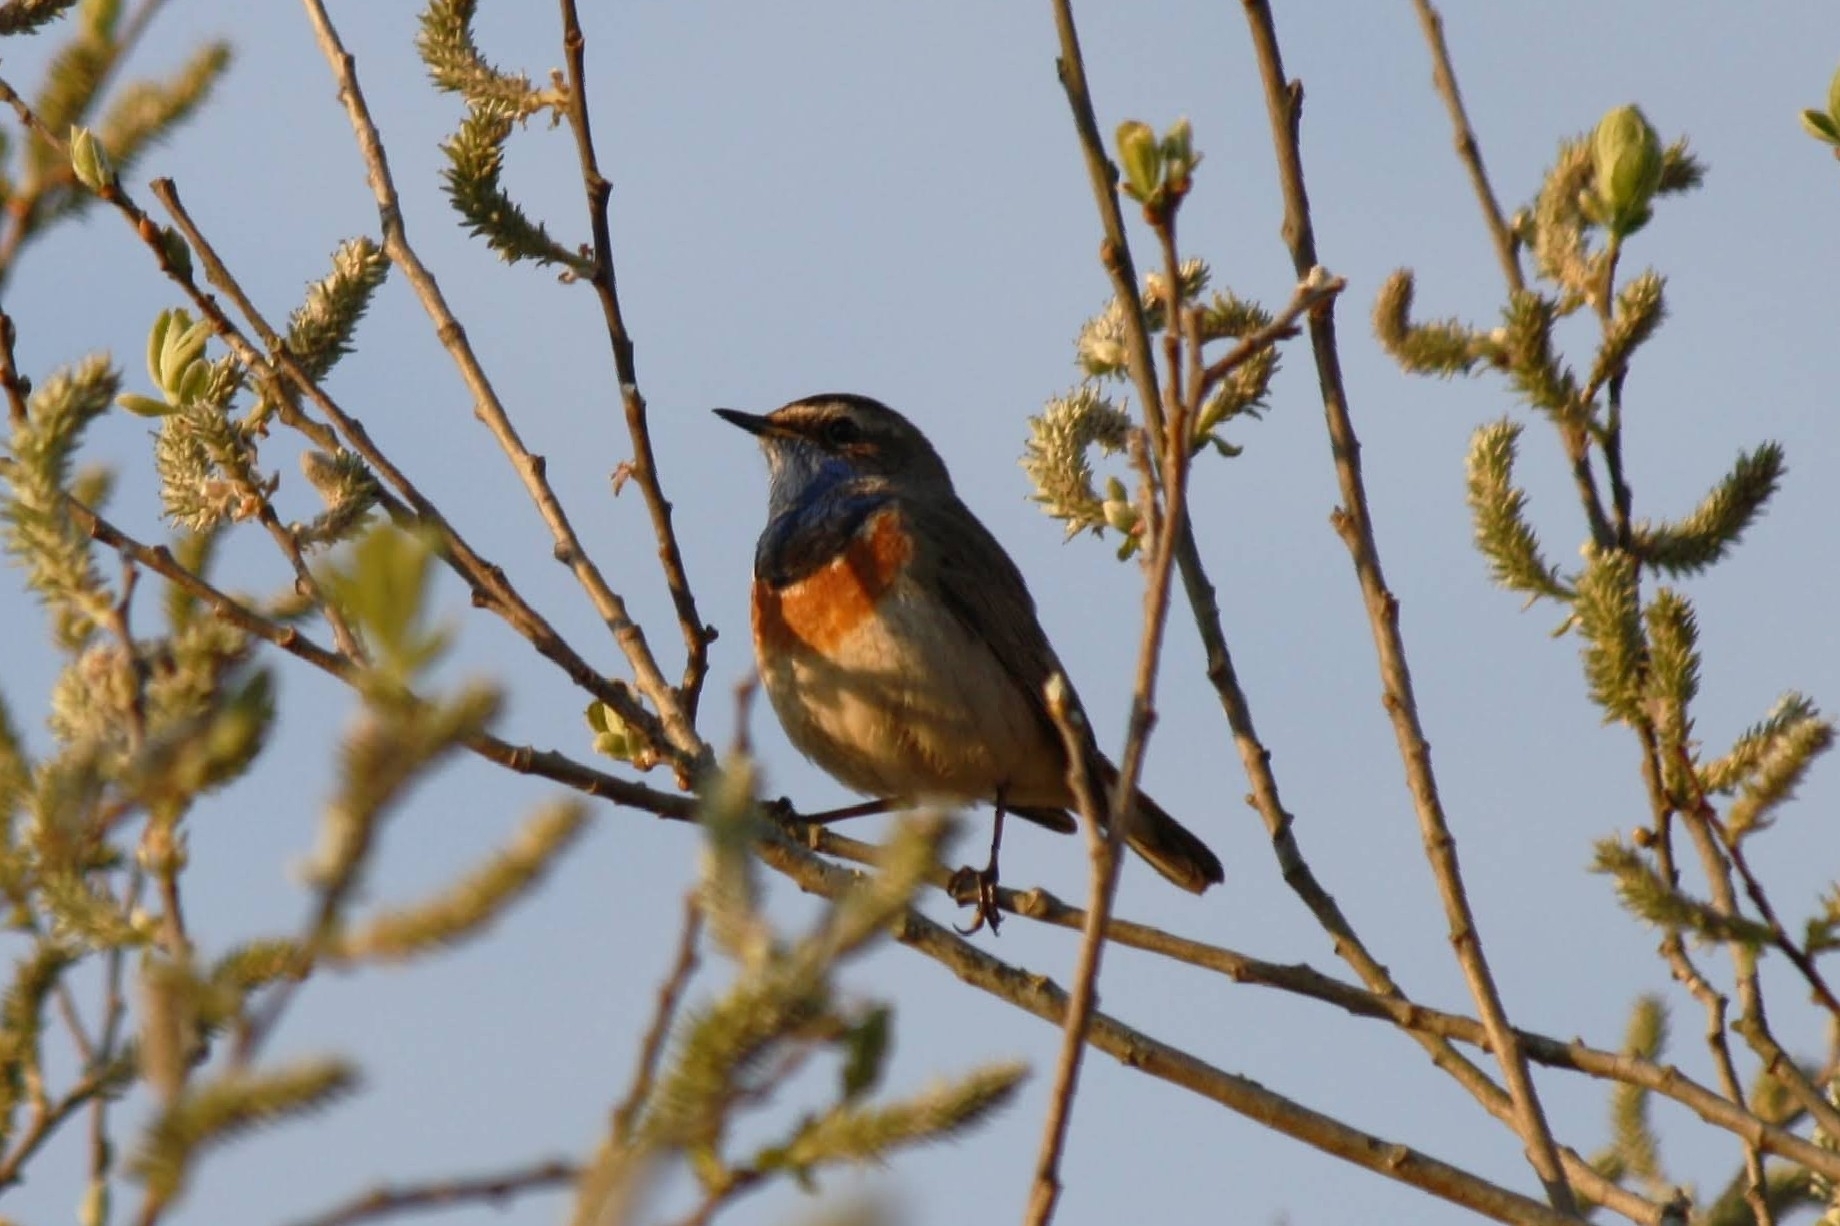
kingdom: Animalia
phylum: Chordata
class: Aves
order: Passeriformes
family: Muscicapidae
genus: Luscinia
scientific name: Luscinia svecica
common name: Bluethroat
